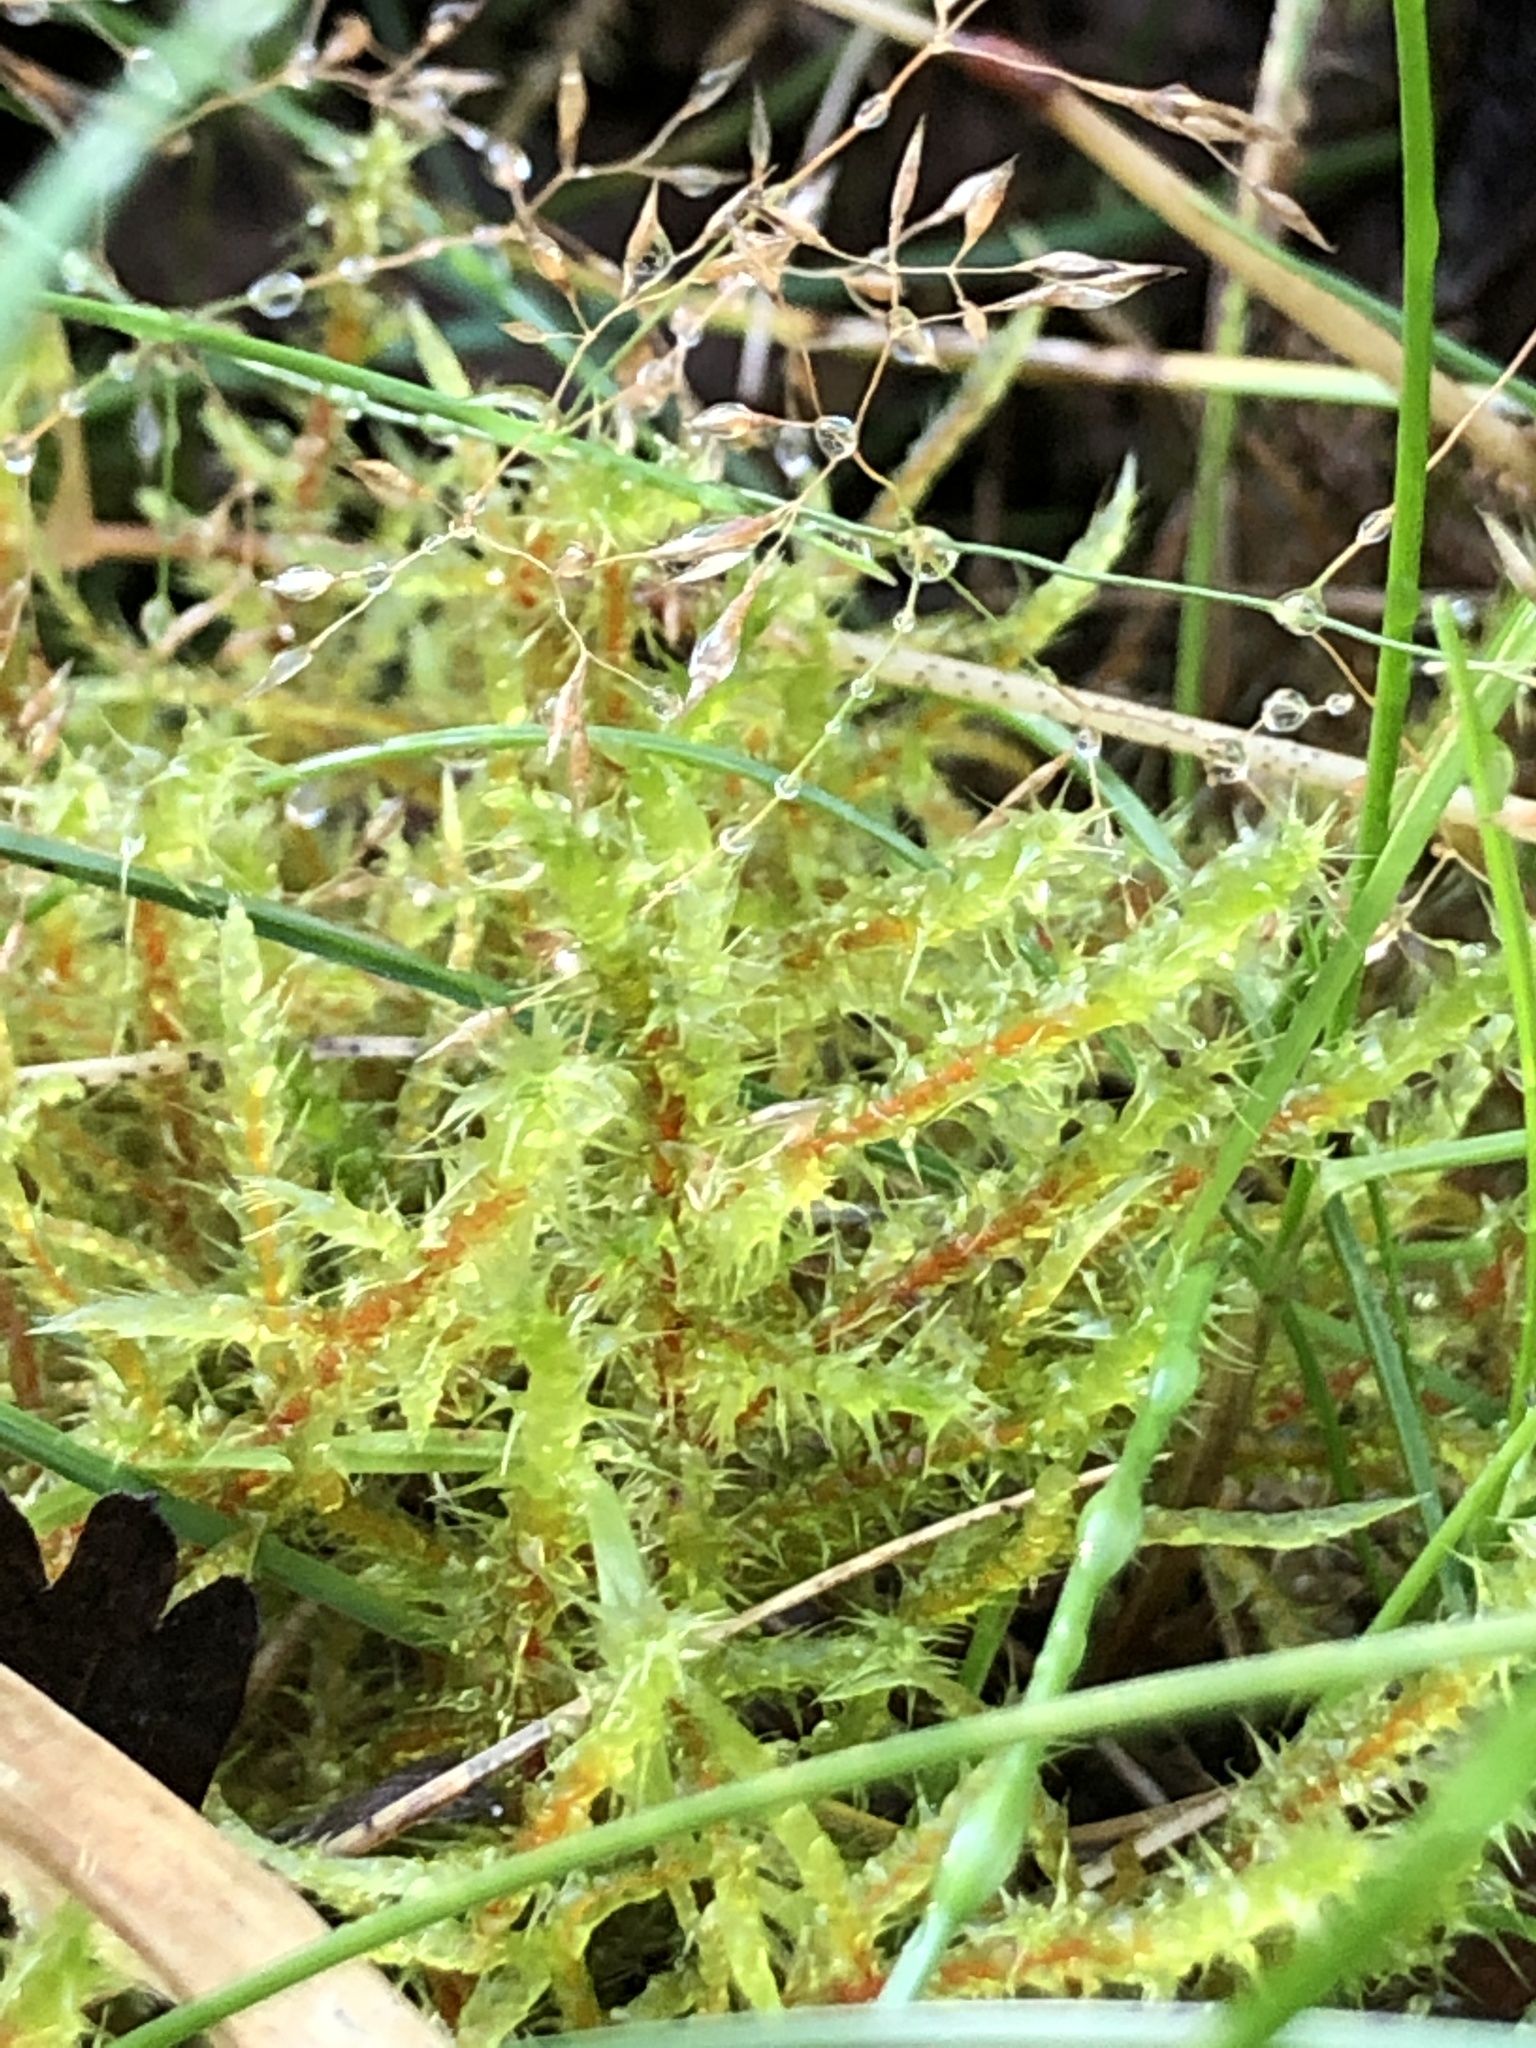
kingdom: Plantae
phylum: Bryophyta
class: Bryopsida
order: Hypnales
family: Hylocomiaceae
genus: Rhytidiadelphus
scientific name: Rhytidiadelphus squarrosus
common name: Springy turf-moss
